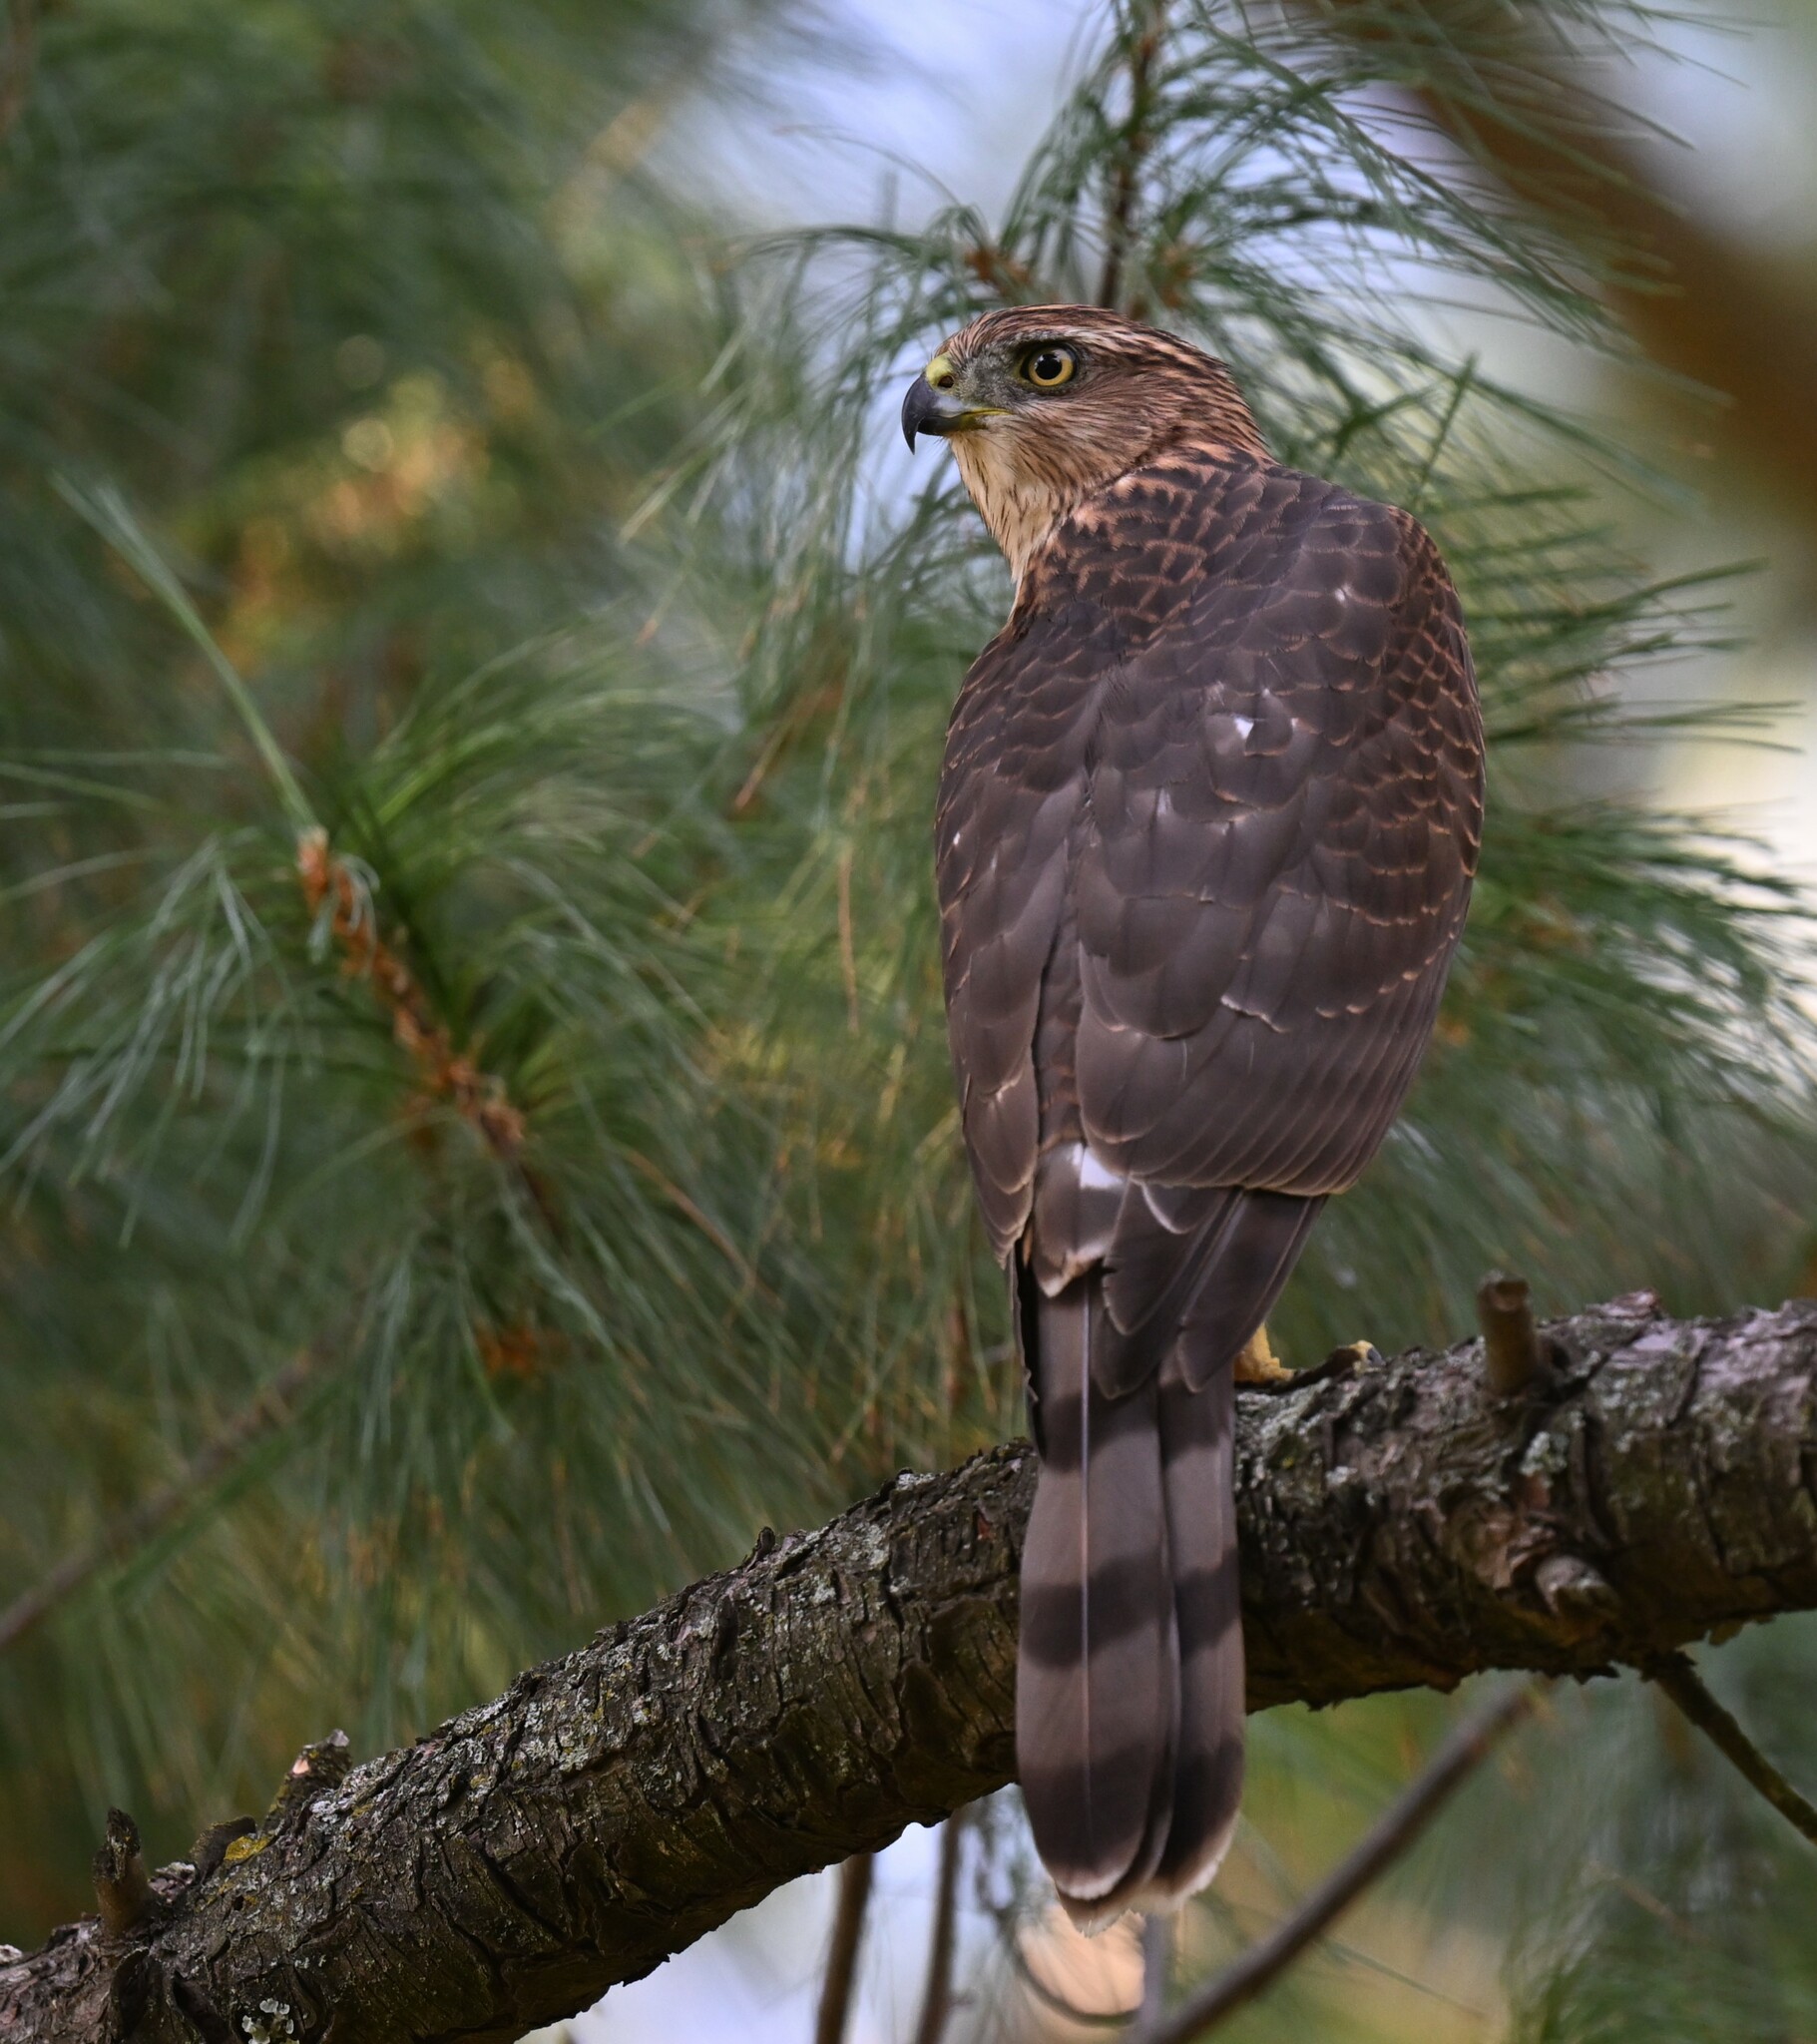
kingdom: Animalia
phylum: Chordata
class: Aves
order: Accipitriformes
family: Accipitridae
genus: Accipiter
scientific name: Accipiter cooperii
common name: Cooper's hawk
